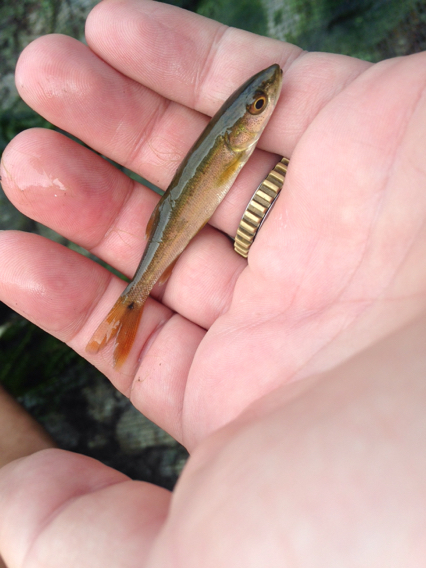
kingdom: Animalia
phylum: Chordata
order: Cypriniformes
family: Cyprinidae
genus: Ptychocheilus
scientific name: Ptychocheilus grandis
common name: Sacramento pikeminnow
